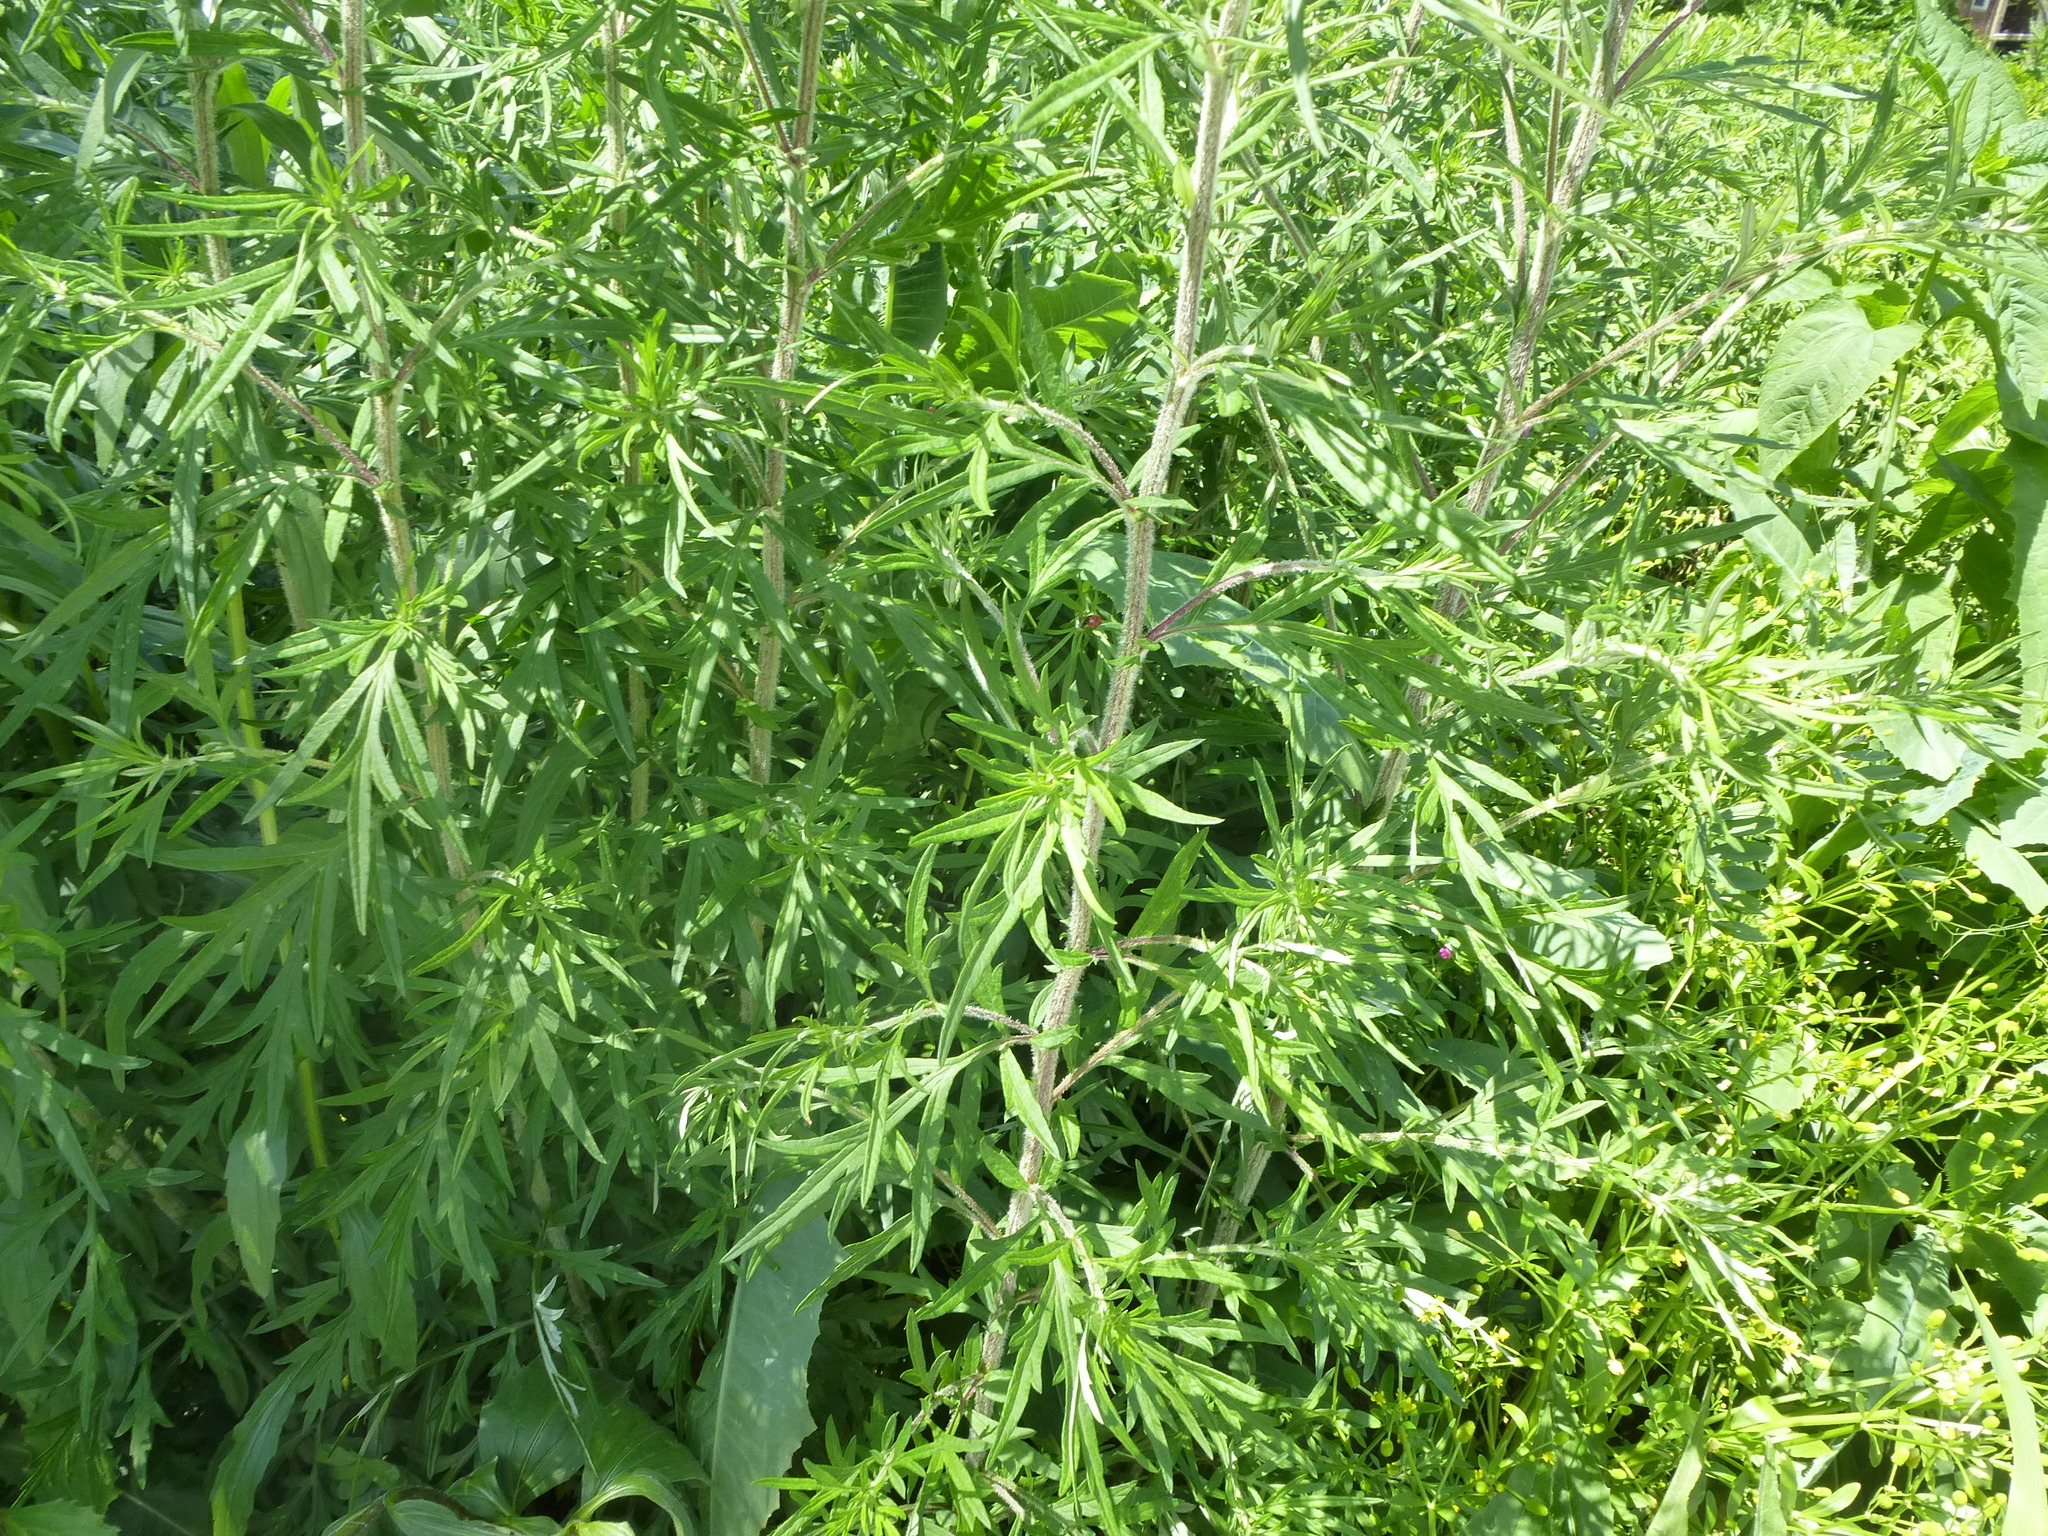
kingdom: Plantae
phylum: Tracheophyta
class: Magnoliopsida
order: Asterales
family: Asteraceae
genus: Artemisia
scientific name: Artemisia vulgaris
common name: Mugwort
